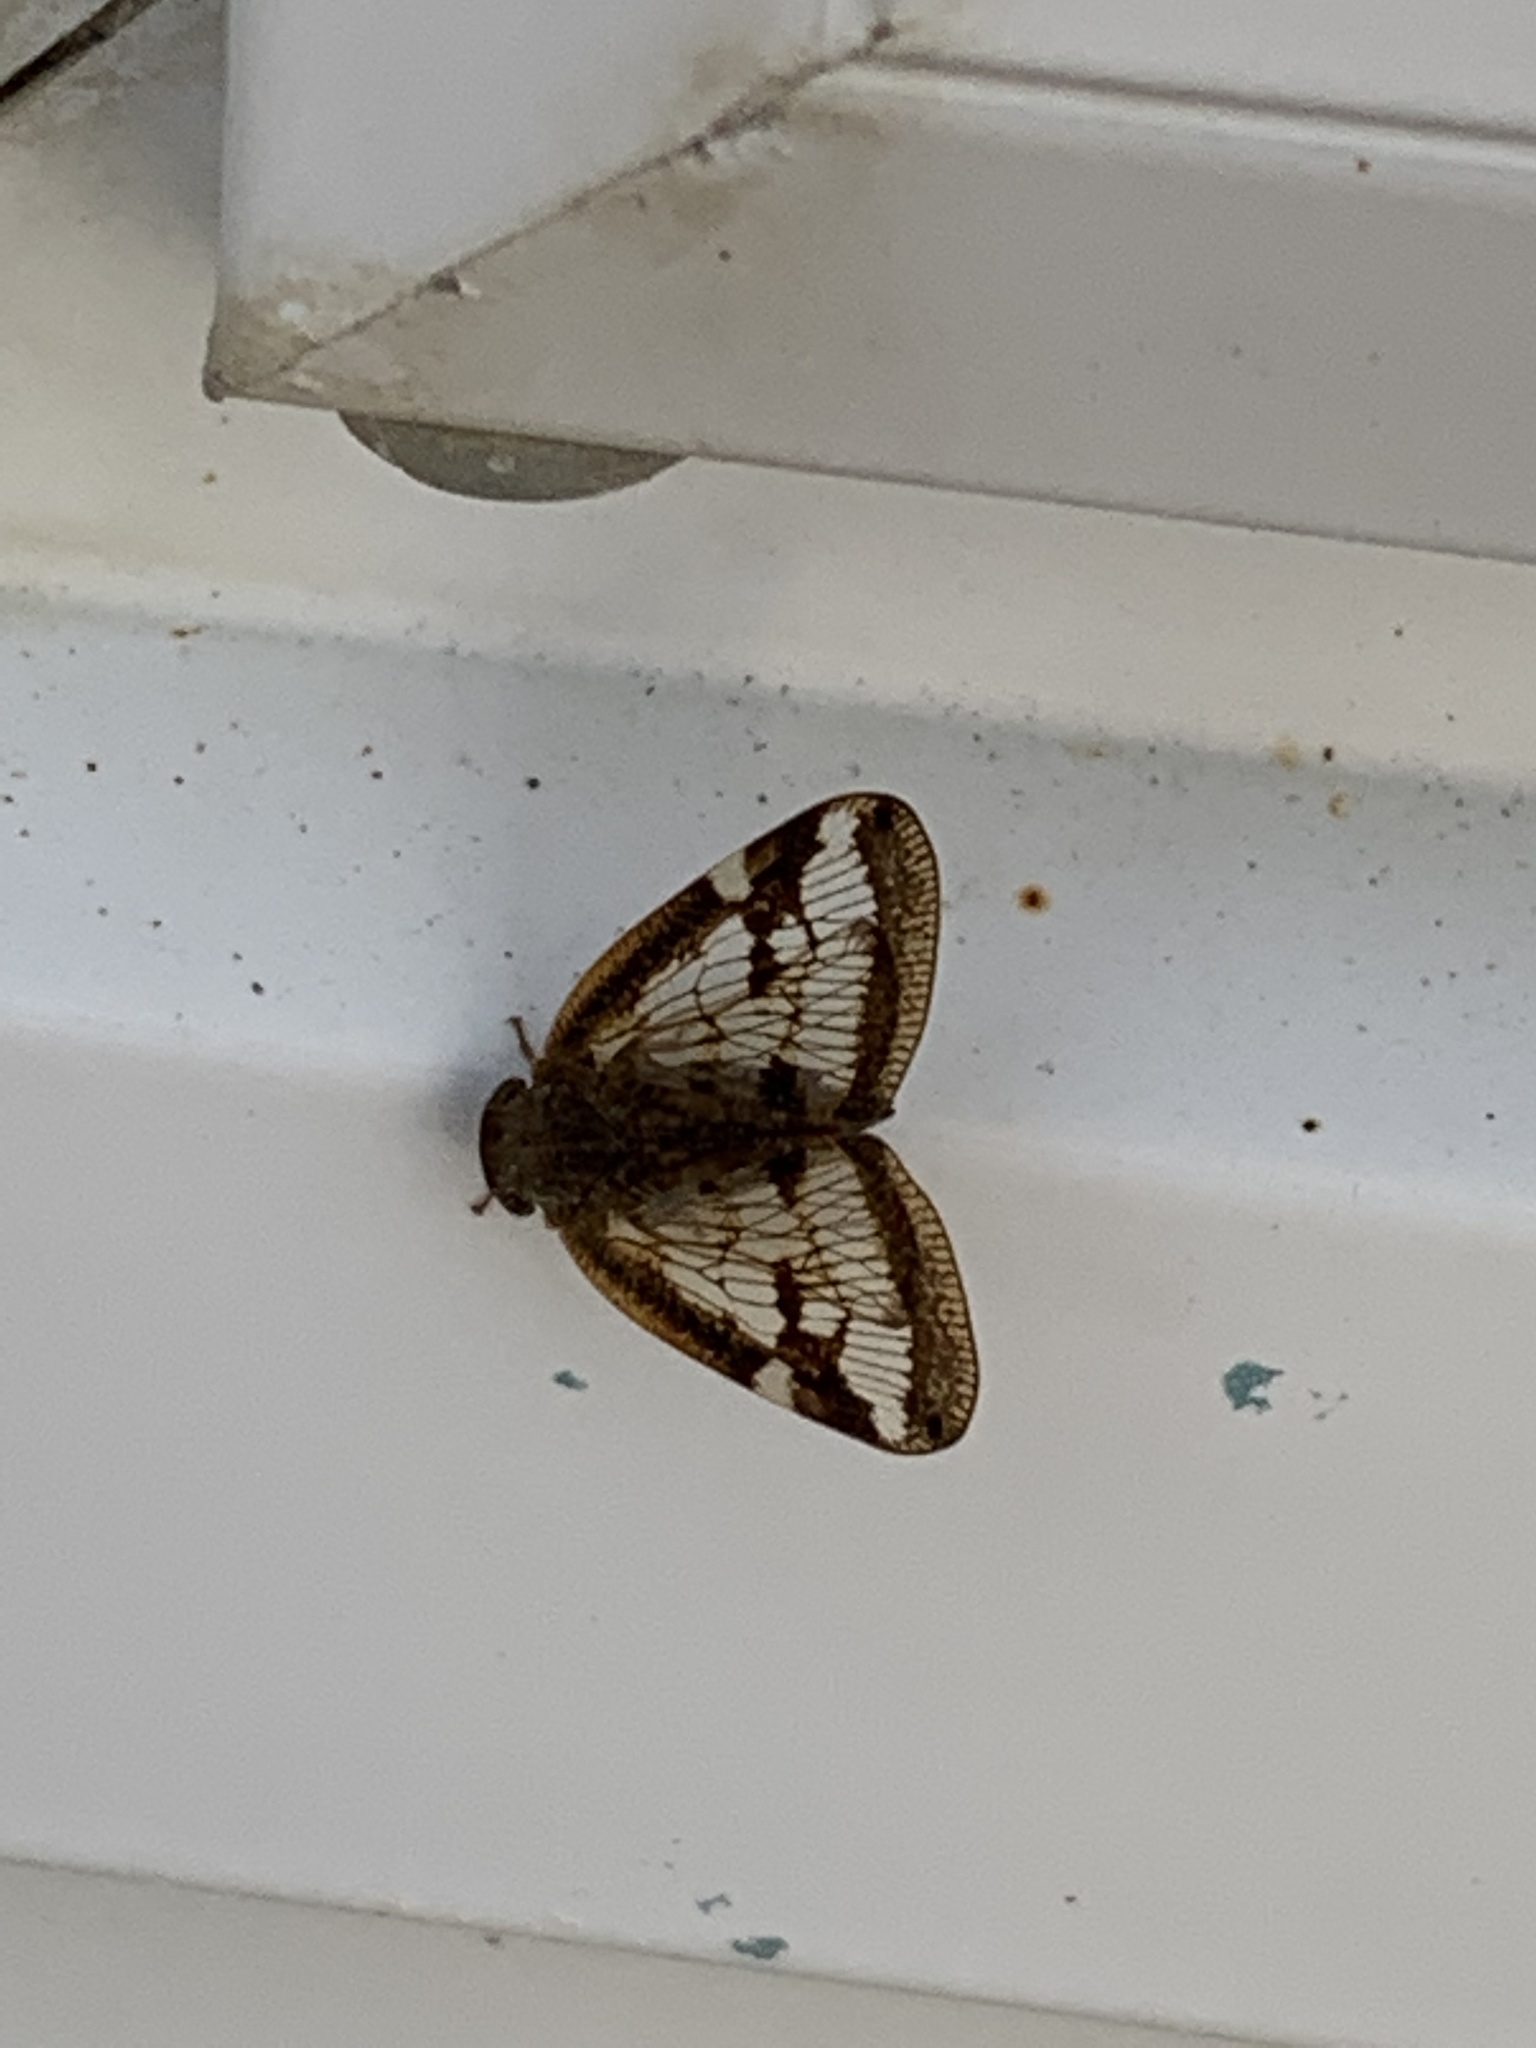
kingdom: Animalia
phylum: Arthropoda
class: Insecta
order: Hemiptera
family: Ricaniidae
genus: Scolypopa
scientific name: Scolypopa australis
